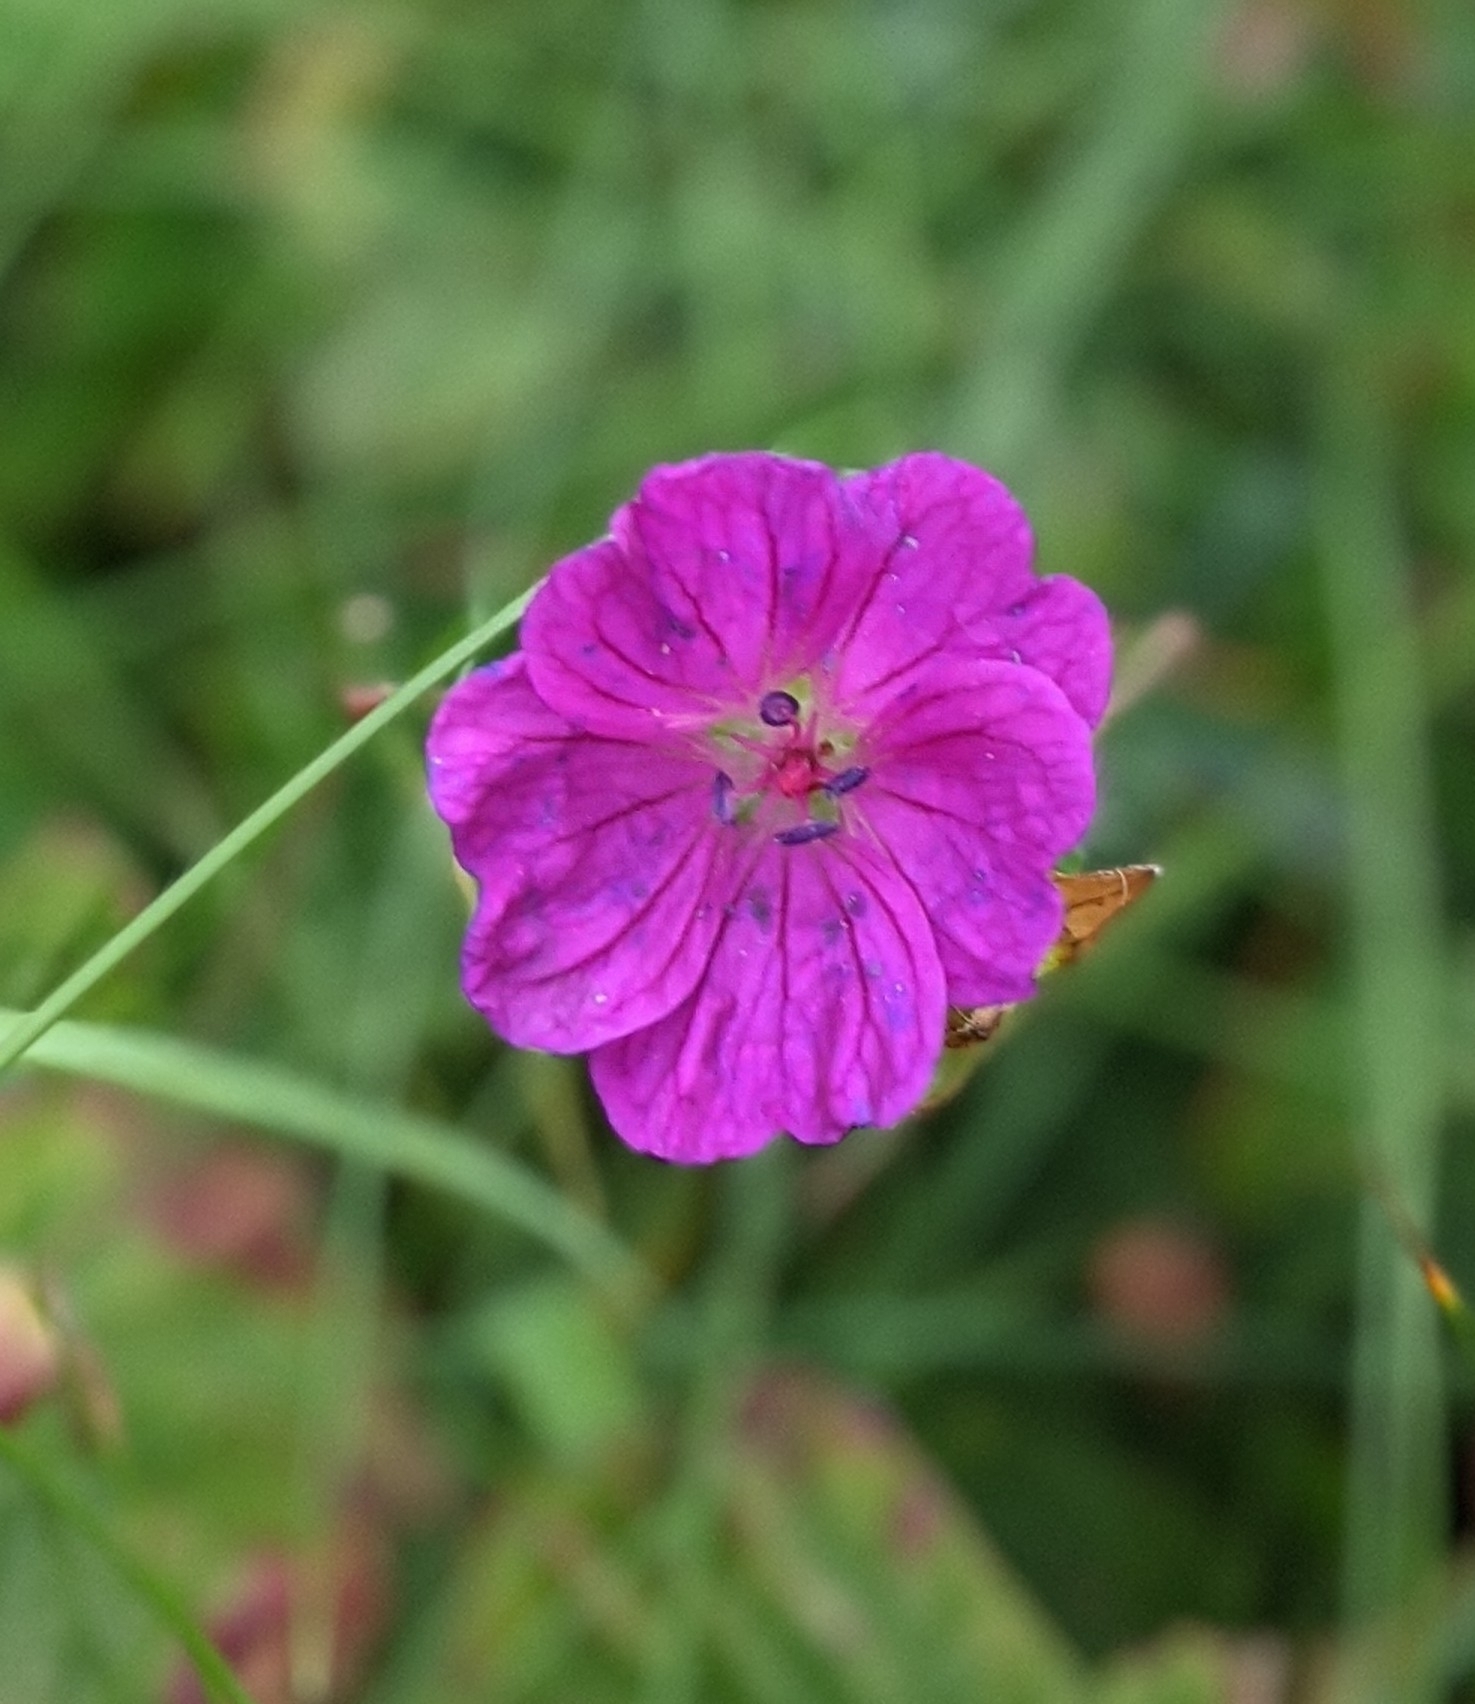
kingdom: Plantae
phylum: Tracheophyta
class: Magnoliopsida
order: Geraniales
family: Geraniaceae
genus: Geranium
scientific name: Geranium sanguineum
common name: Bloody crane's-bill
